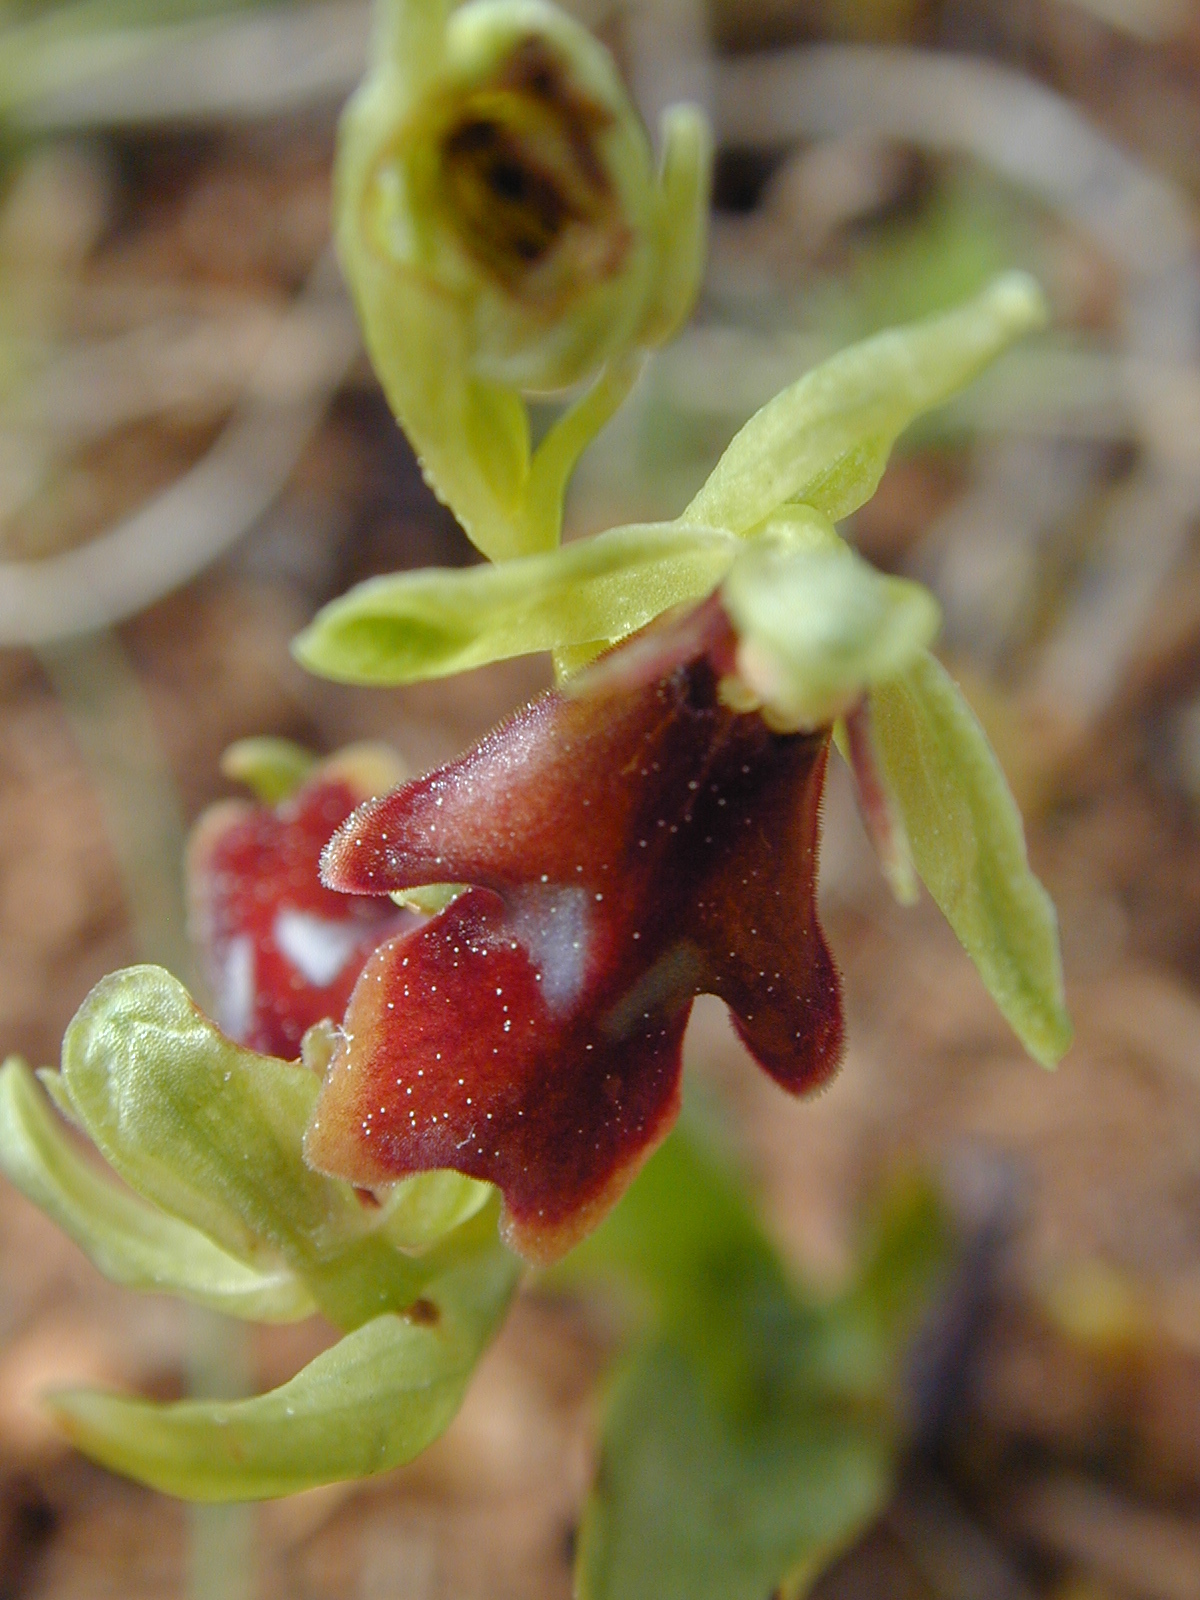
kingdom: Plantae
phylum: Tracheophyta
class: Liliopsida
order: Asparagales
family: Orchidaceae
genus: Ophrys
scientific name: Ophrys insectifera
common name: Fly orchid
